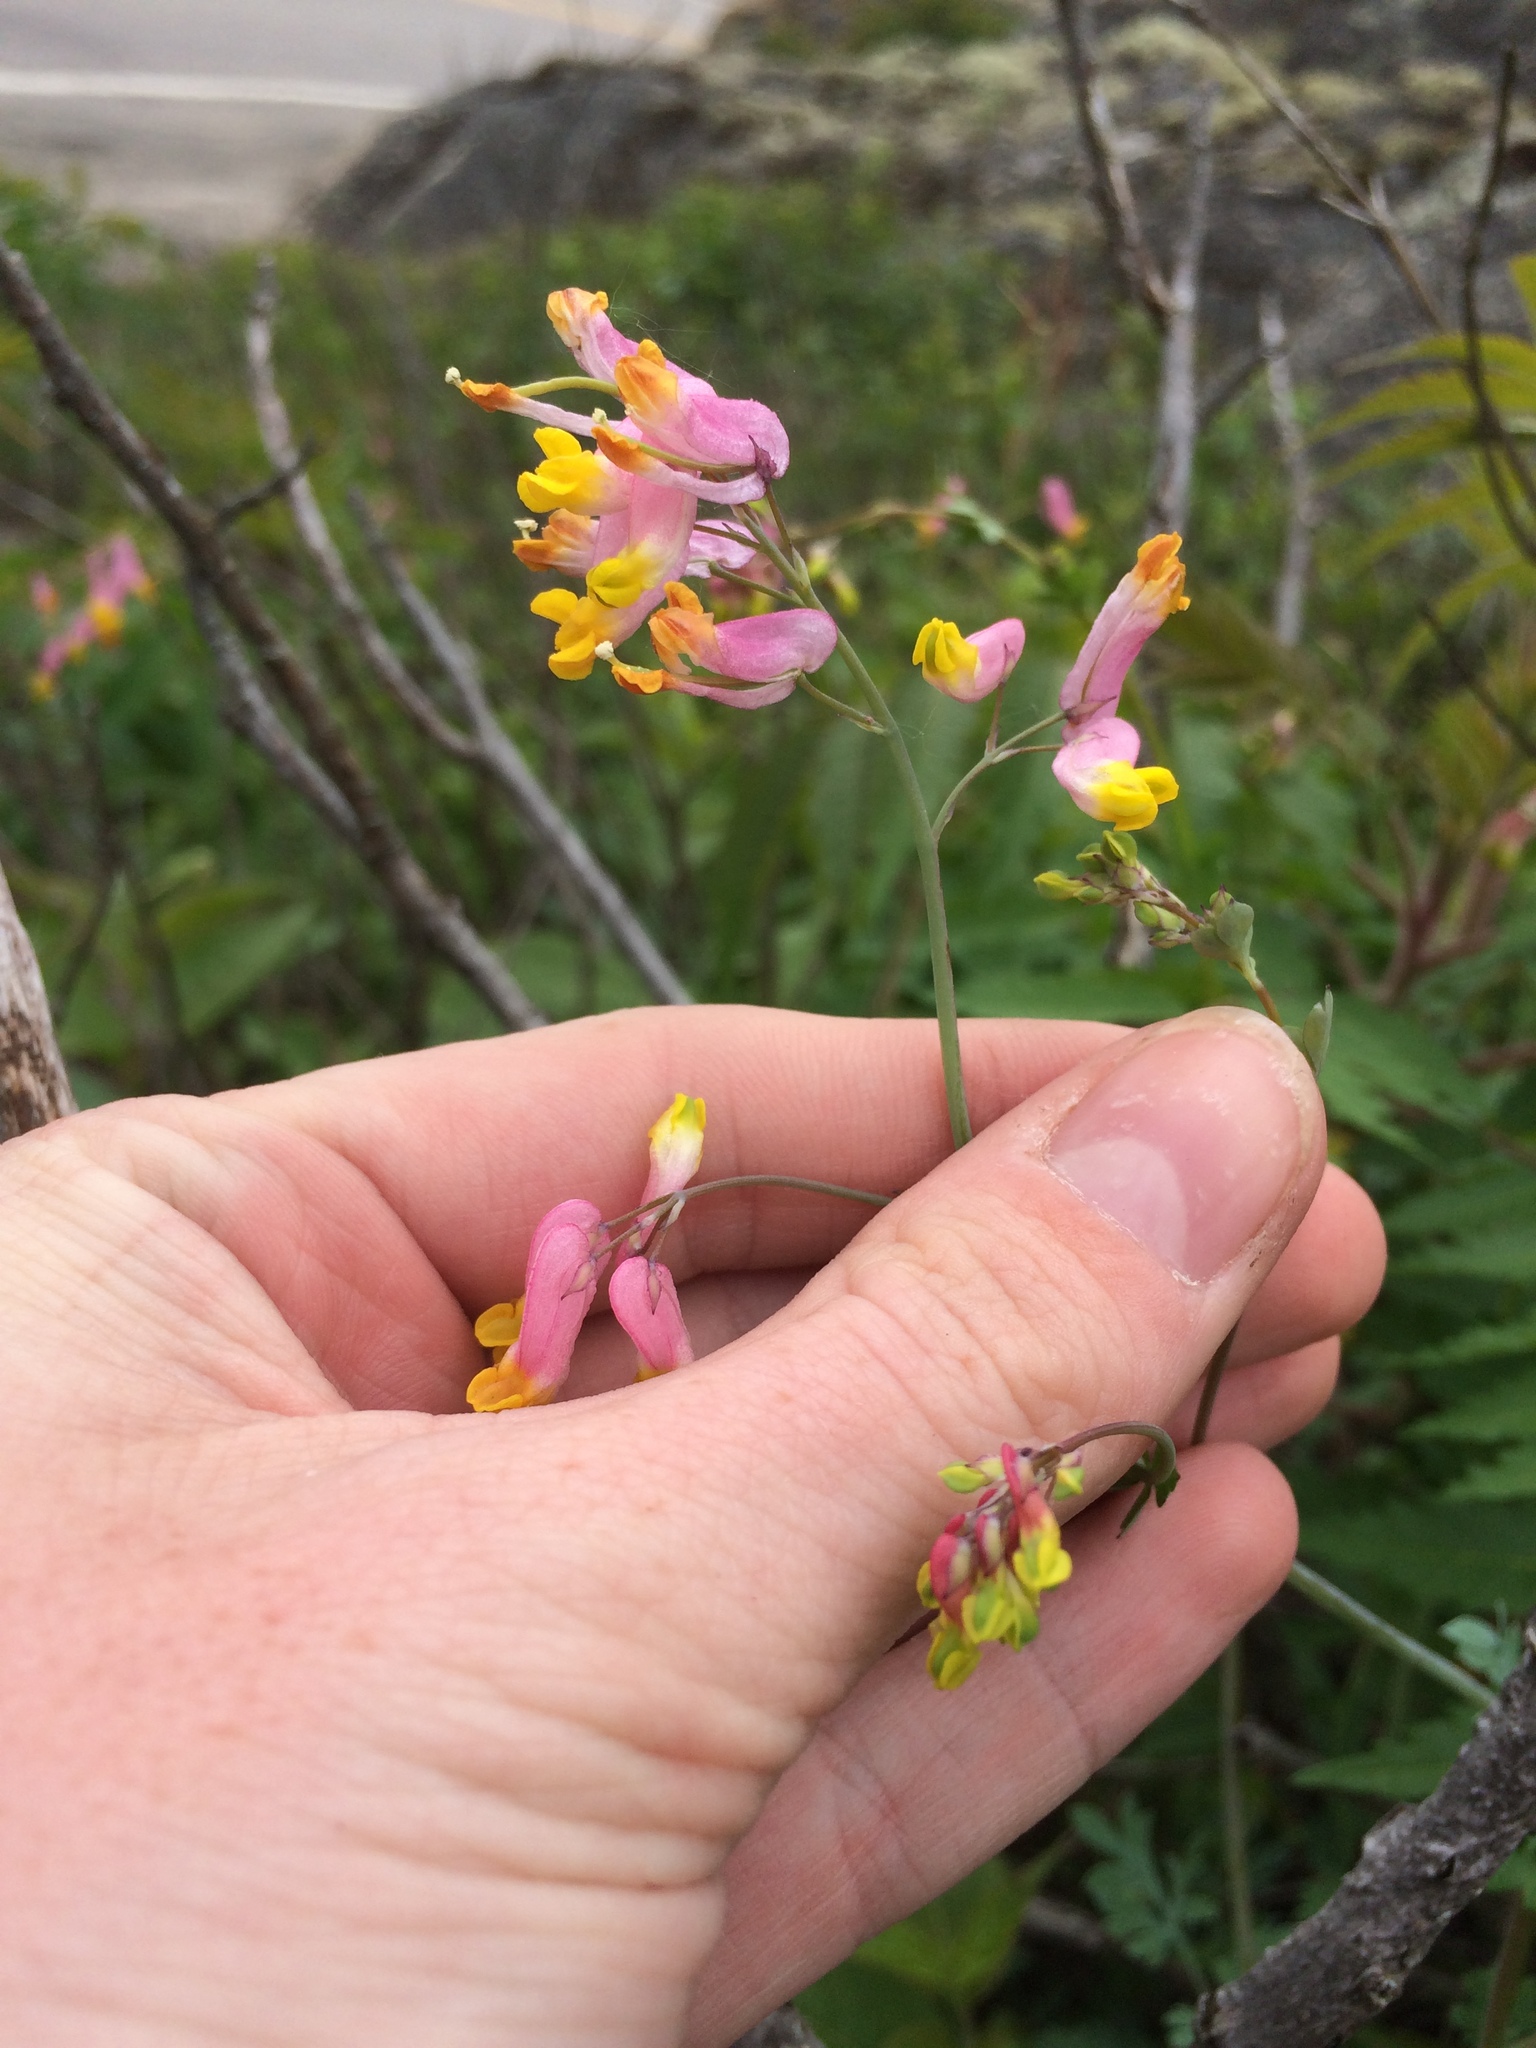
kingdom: Plantae
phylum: Tracheophyta
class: Magnoliopsida
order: Ranunculales
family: Papaveraceae
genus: Capnoides
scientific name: Capnoides sempervirens
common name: Rock harlequin
